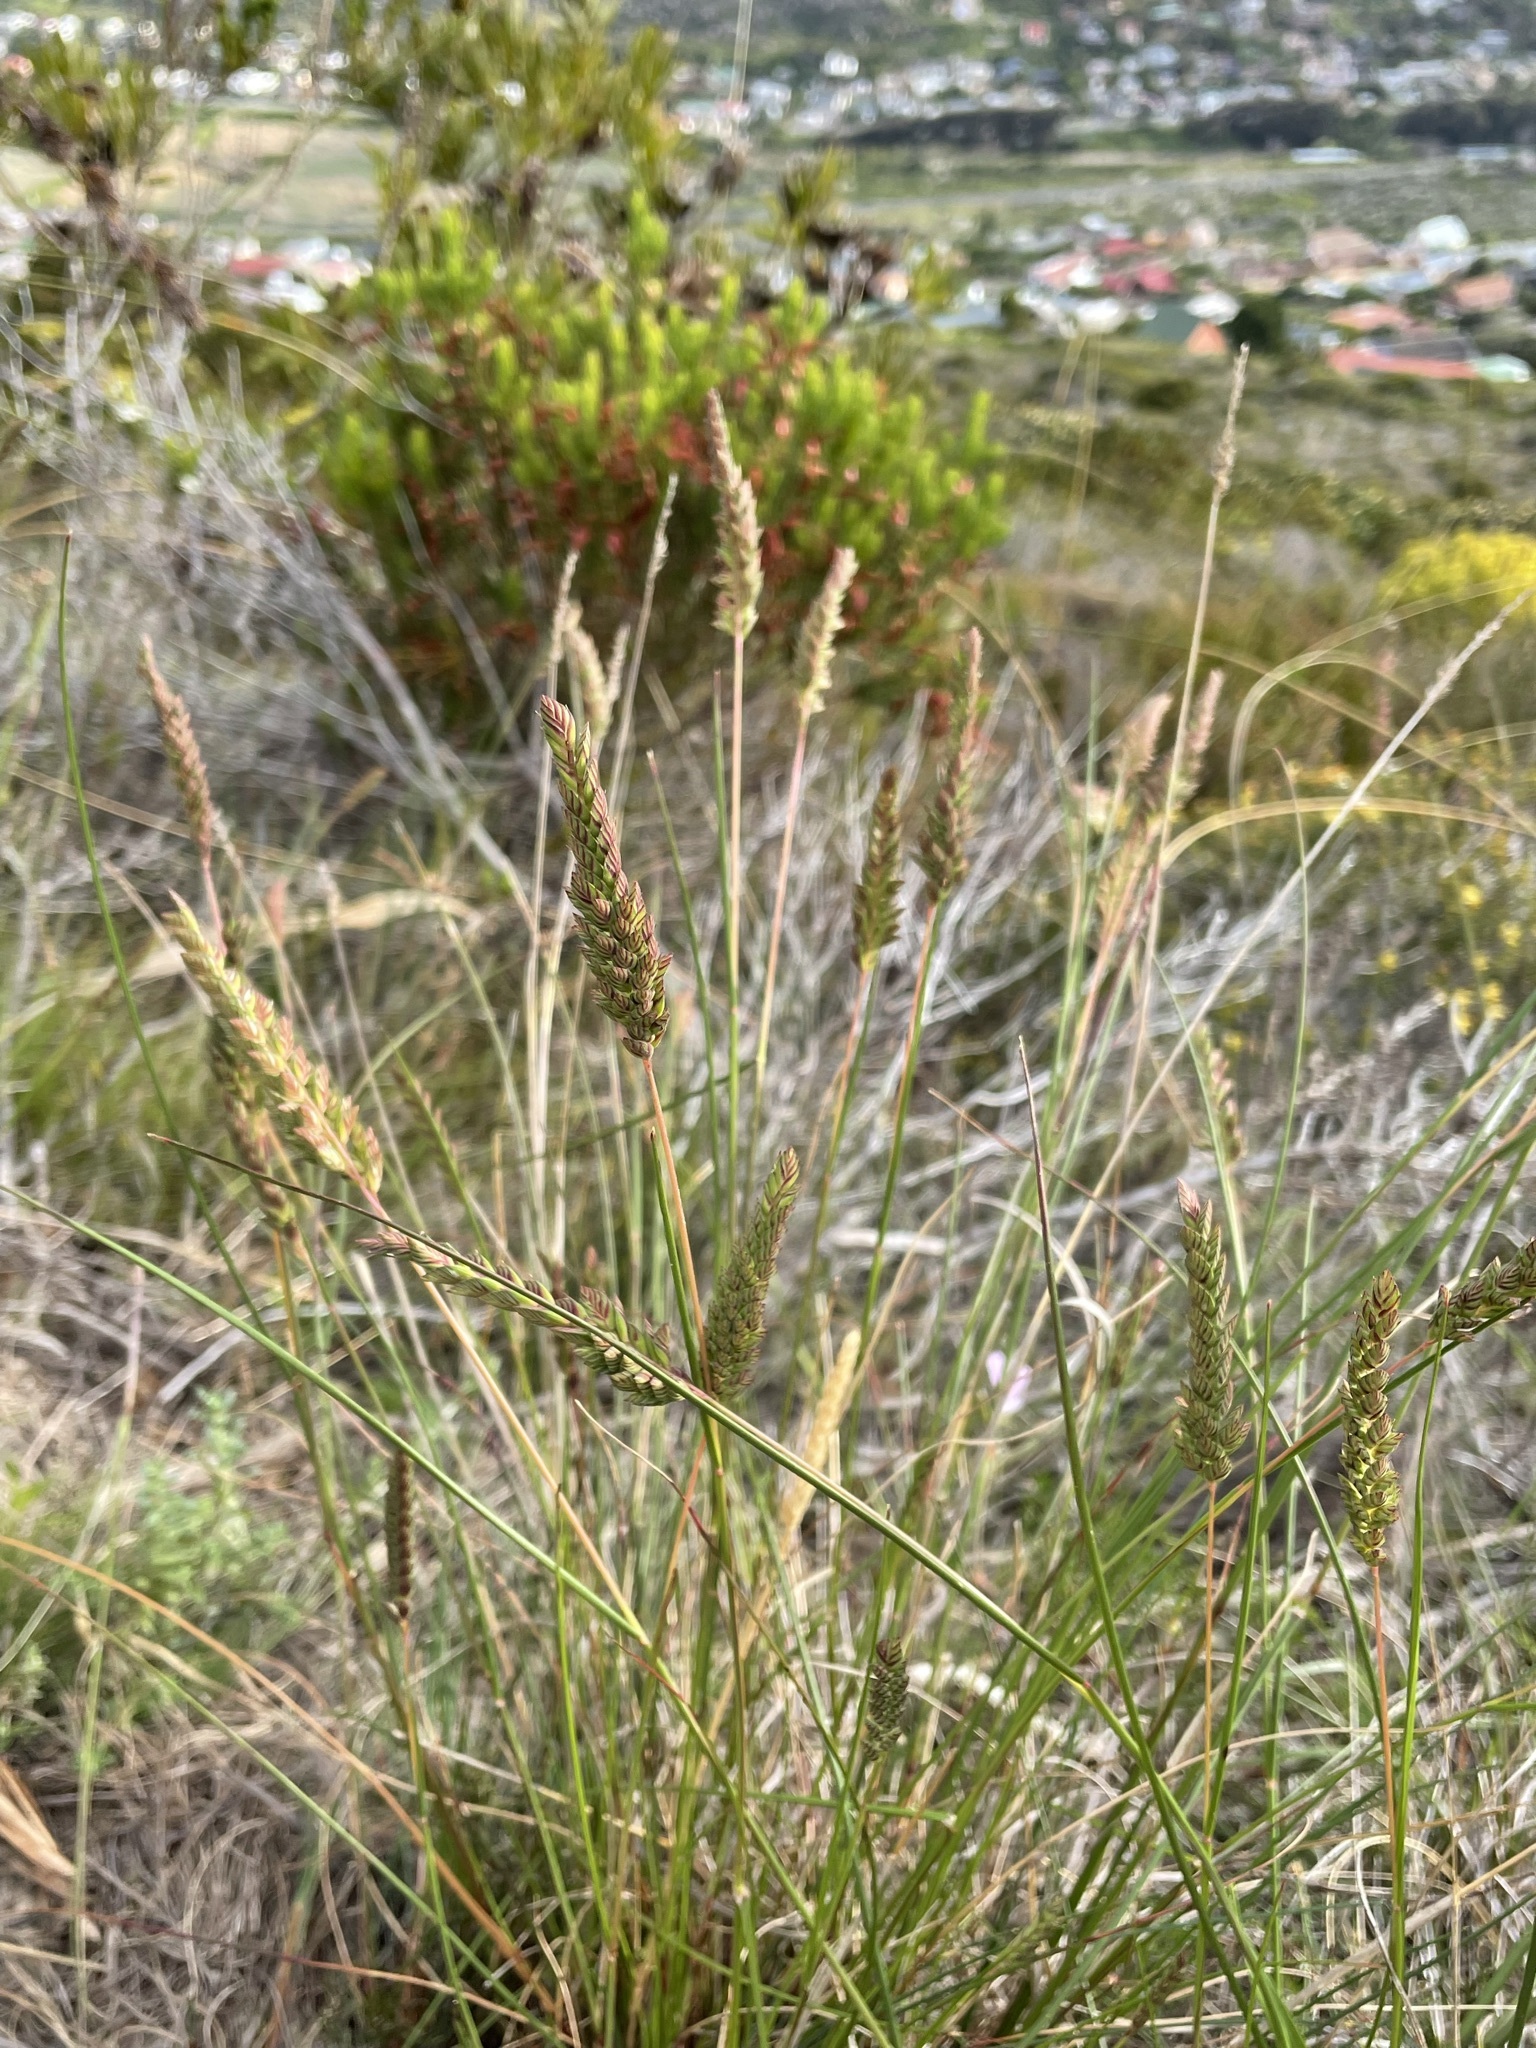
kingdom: Plantae
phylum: Tracheophyta
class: Liliopsida
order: Poales
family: Poaceae
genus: Tribolium
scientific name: Tribolium uniolae
